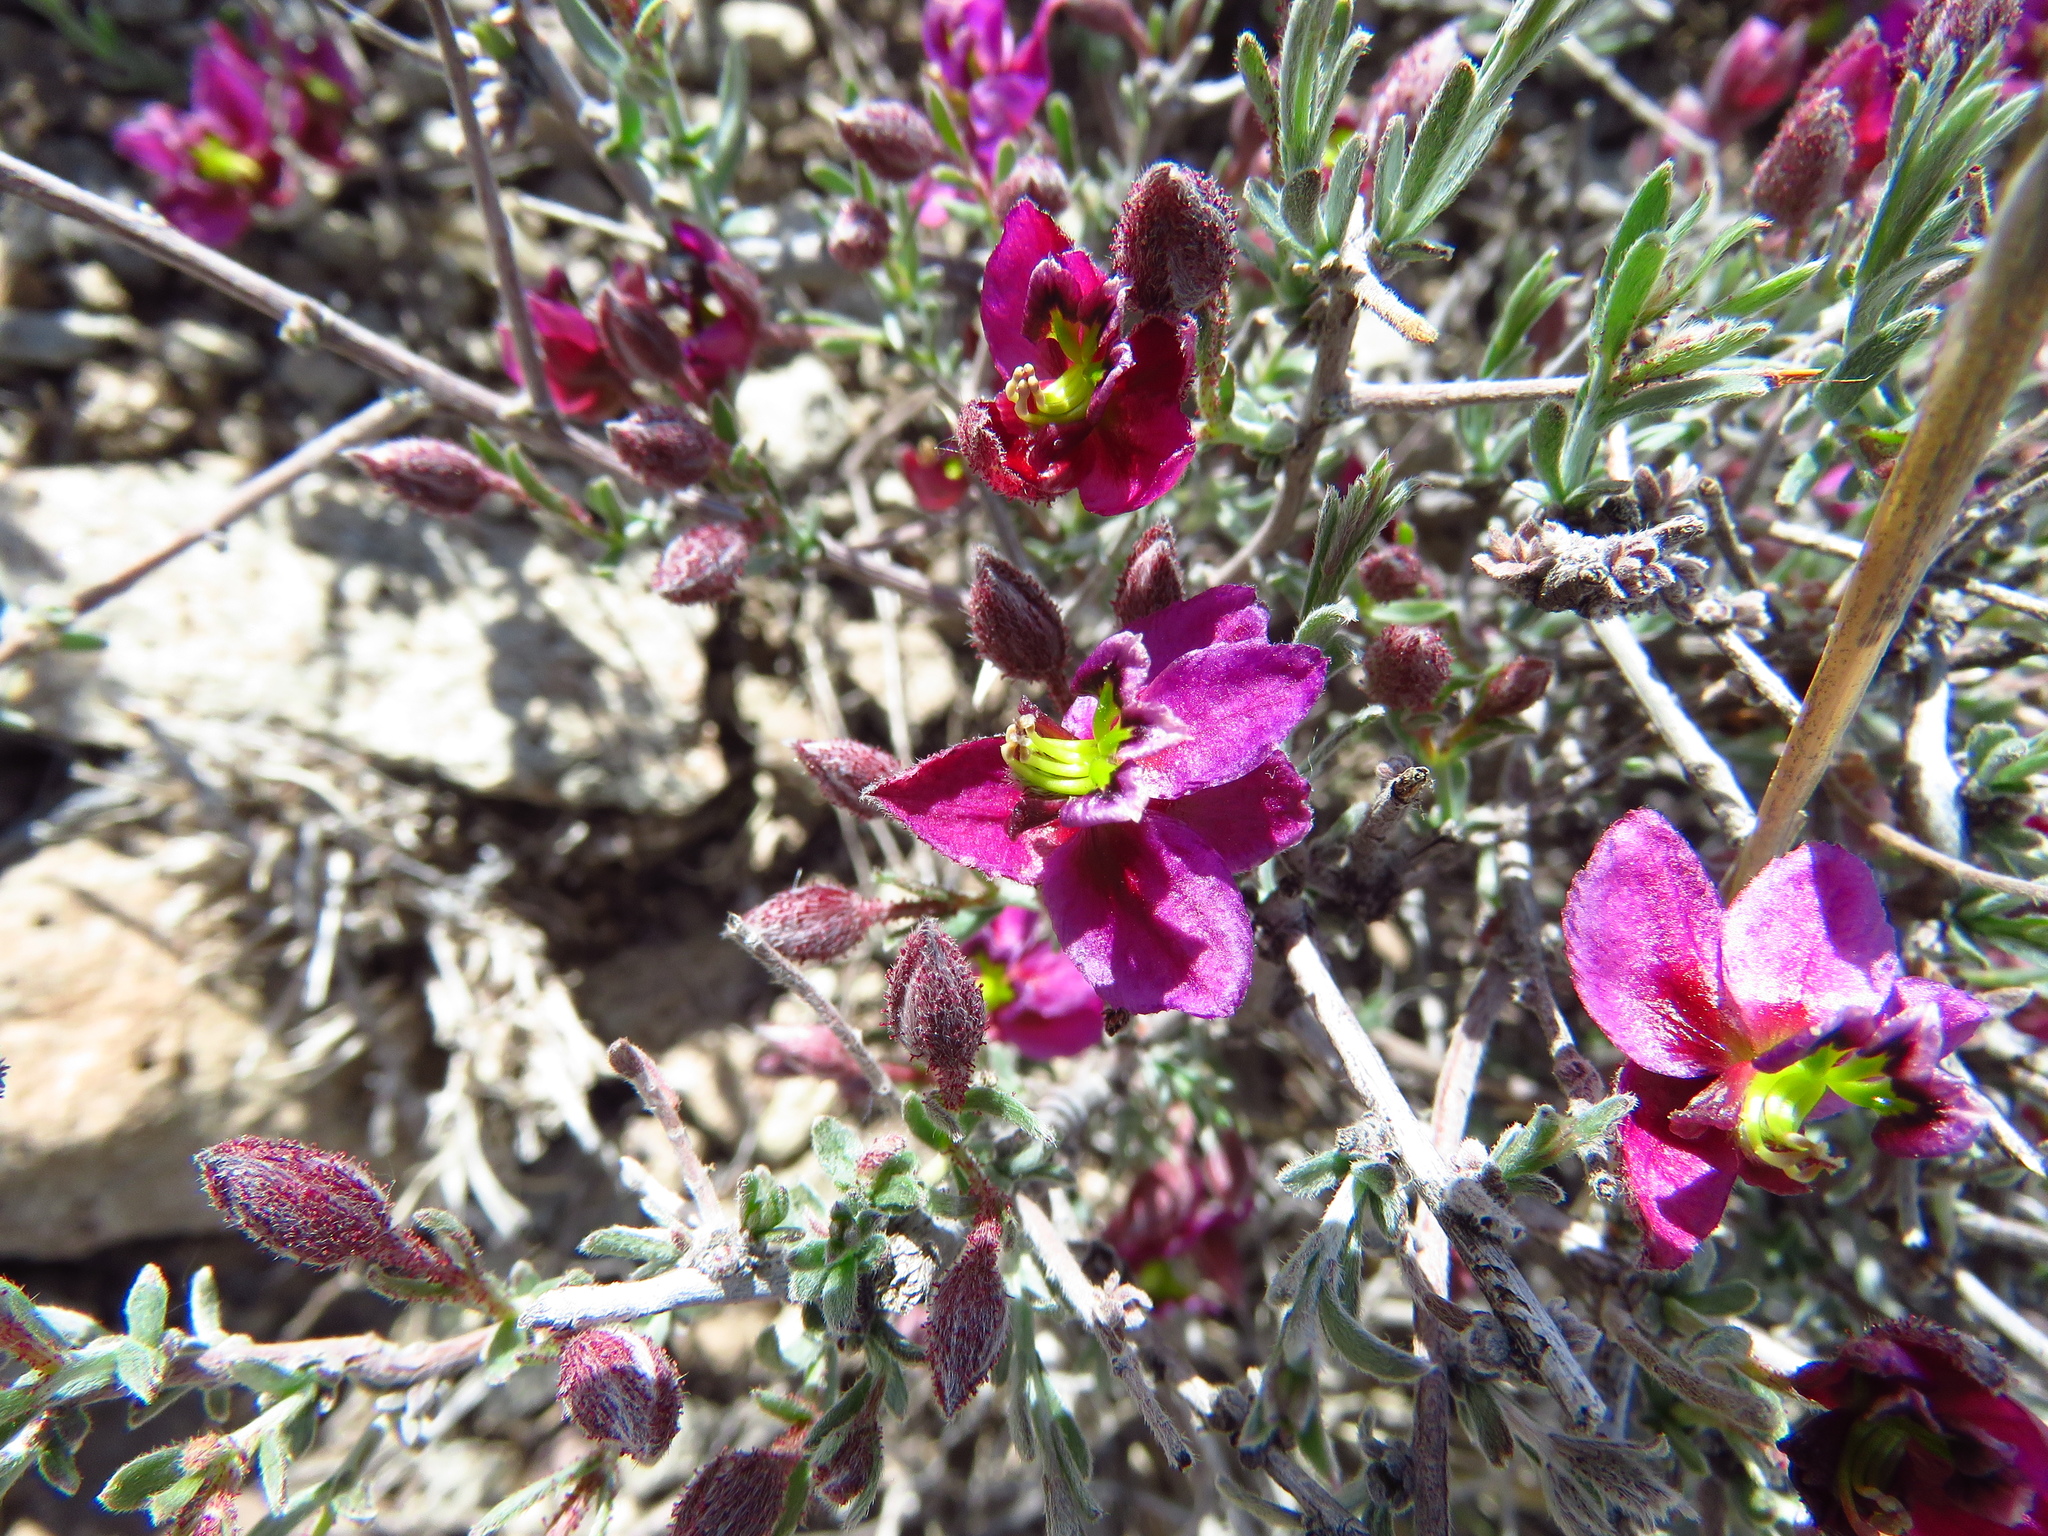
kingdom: Plantae
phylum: Tracheophyta
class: Magnoliopsida
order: Zygophyllales
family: Krameriaceae
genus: Krameria
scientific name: Krameria erecta
